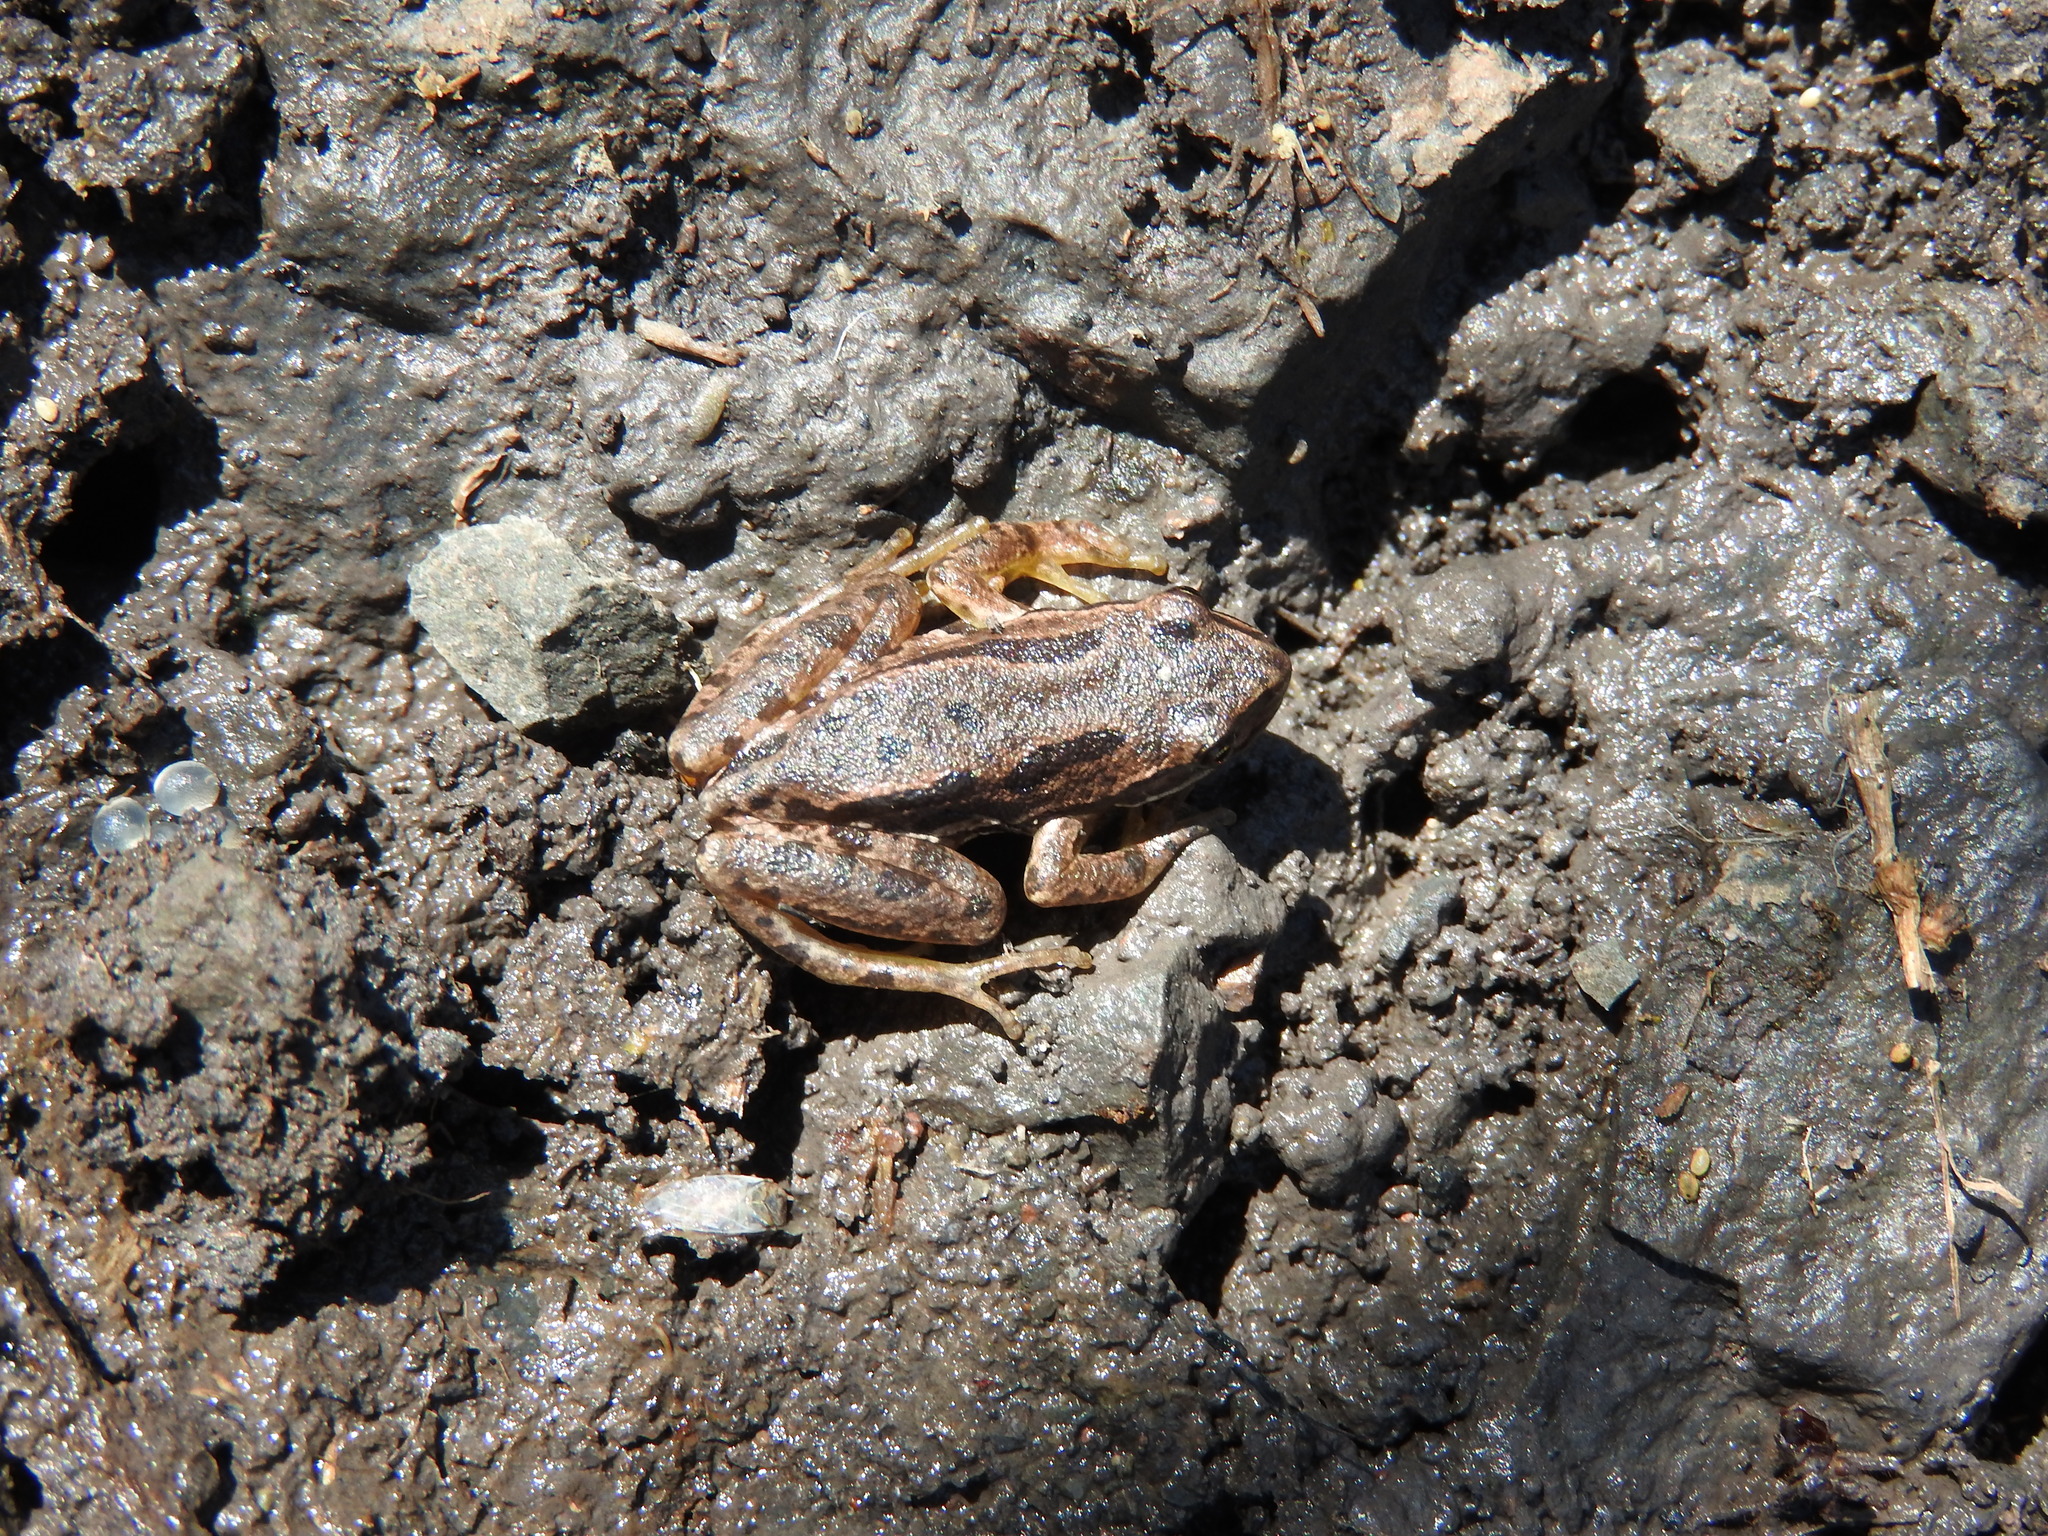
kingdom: Animalia
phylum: Chordata
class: Amphibia
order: Anura
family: Hylidae
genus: Dryophytes
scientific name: Dryophytes eximius
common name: Mountain treefrog
